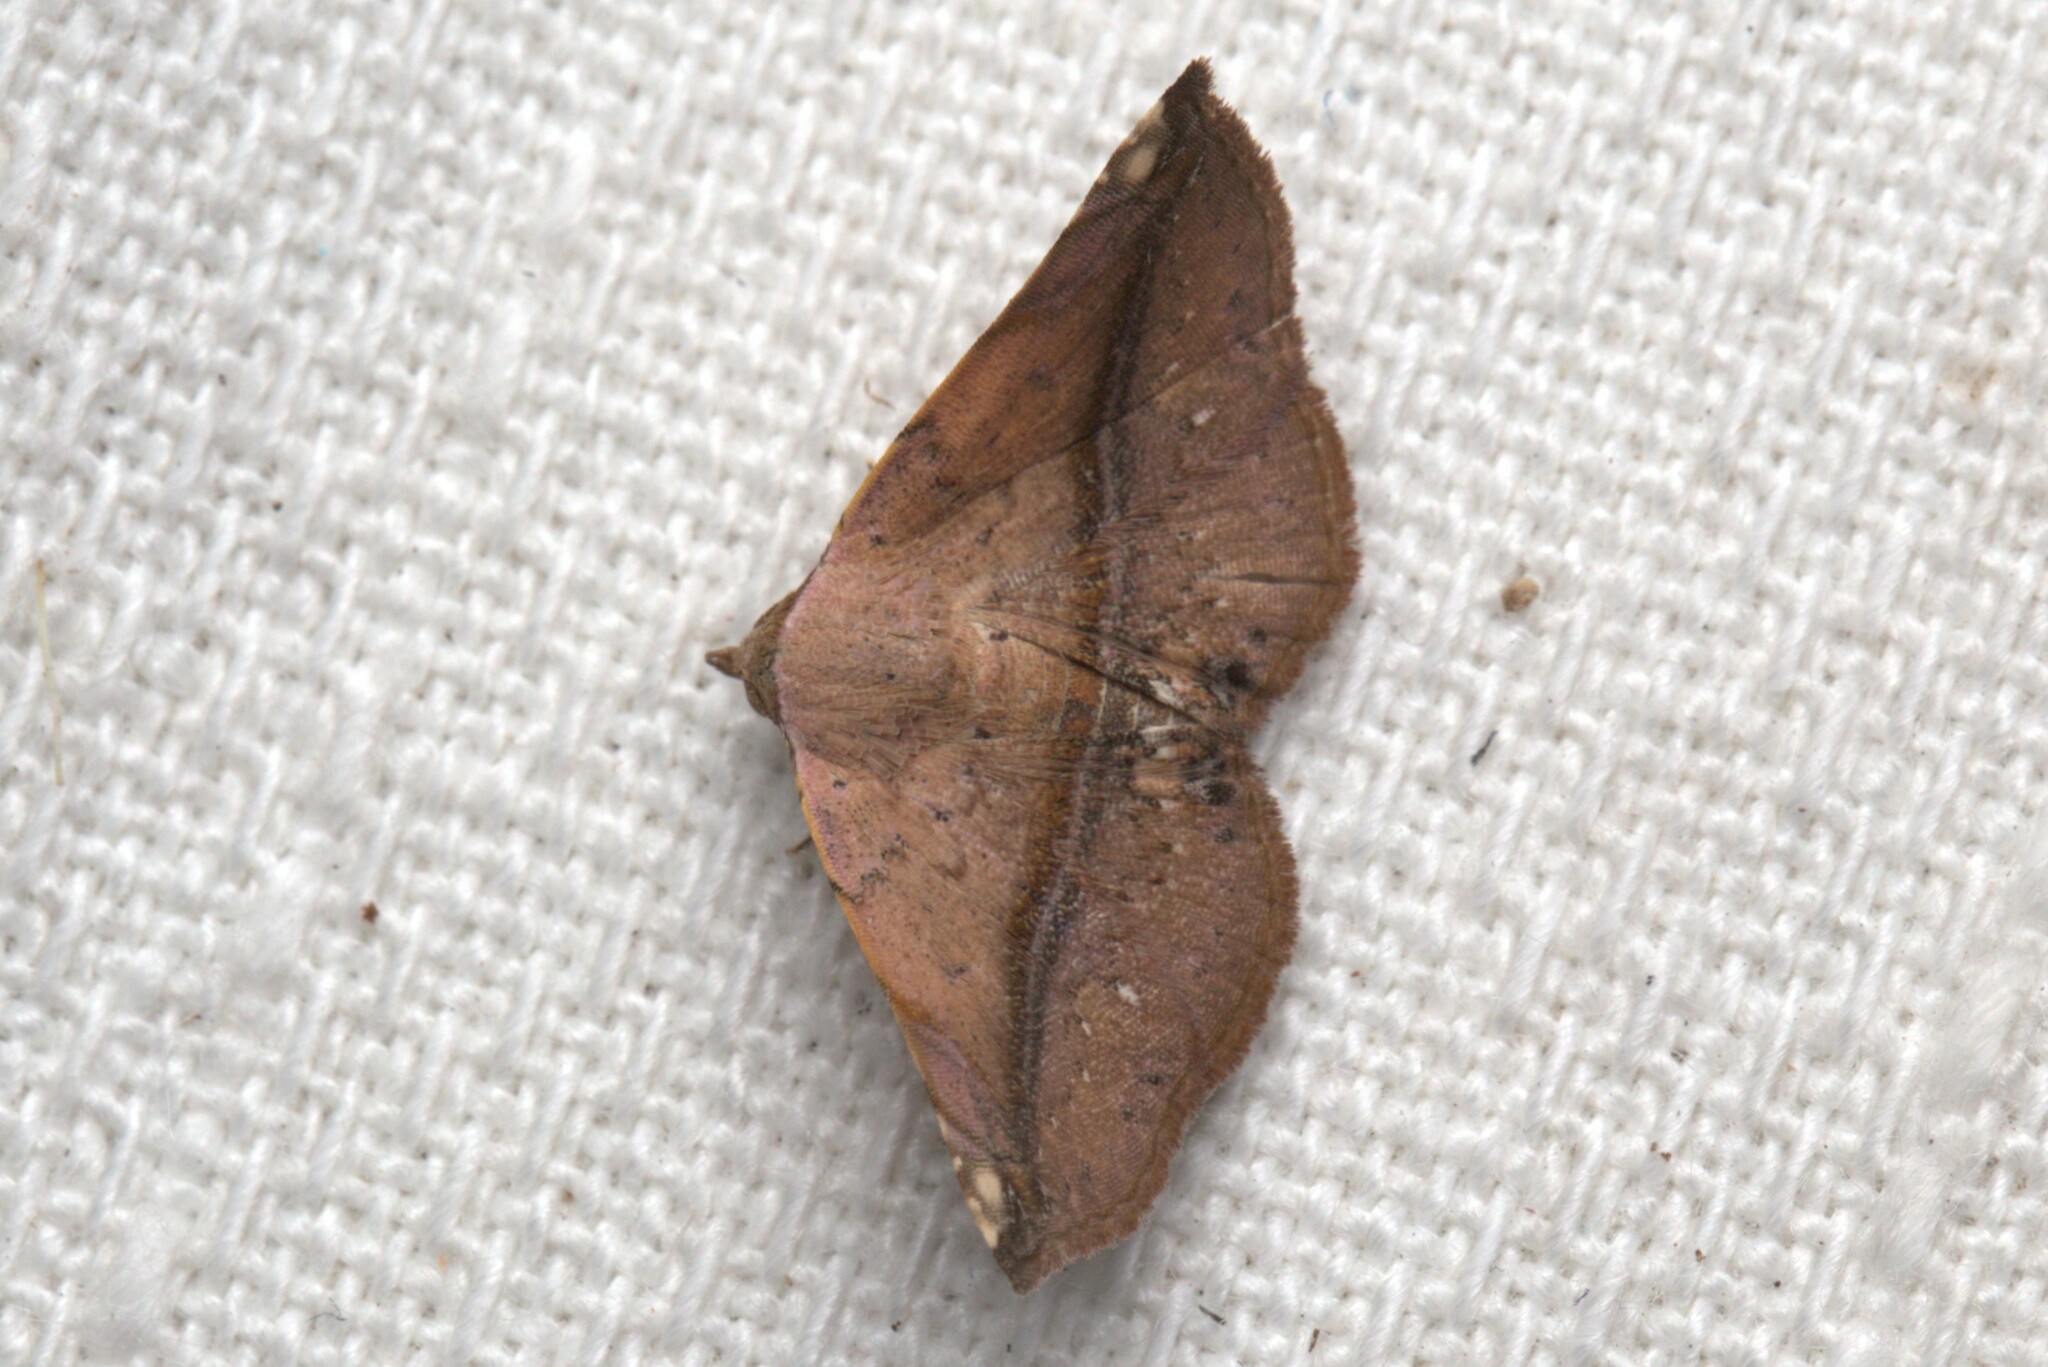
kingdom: Animalia
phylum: Arthropoda
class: Insecta
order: Lepidoptera
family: Noctuidae
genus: Eublemma
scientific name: Eublemma abrupta
